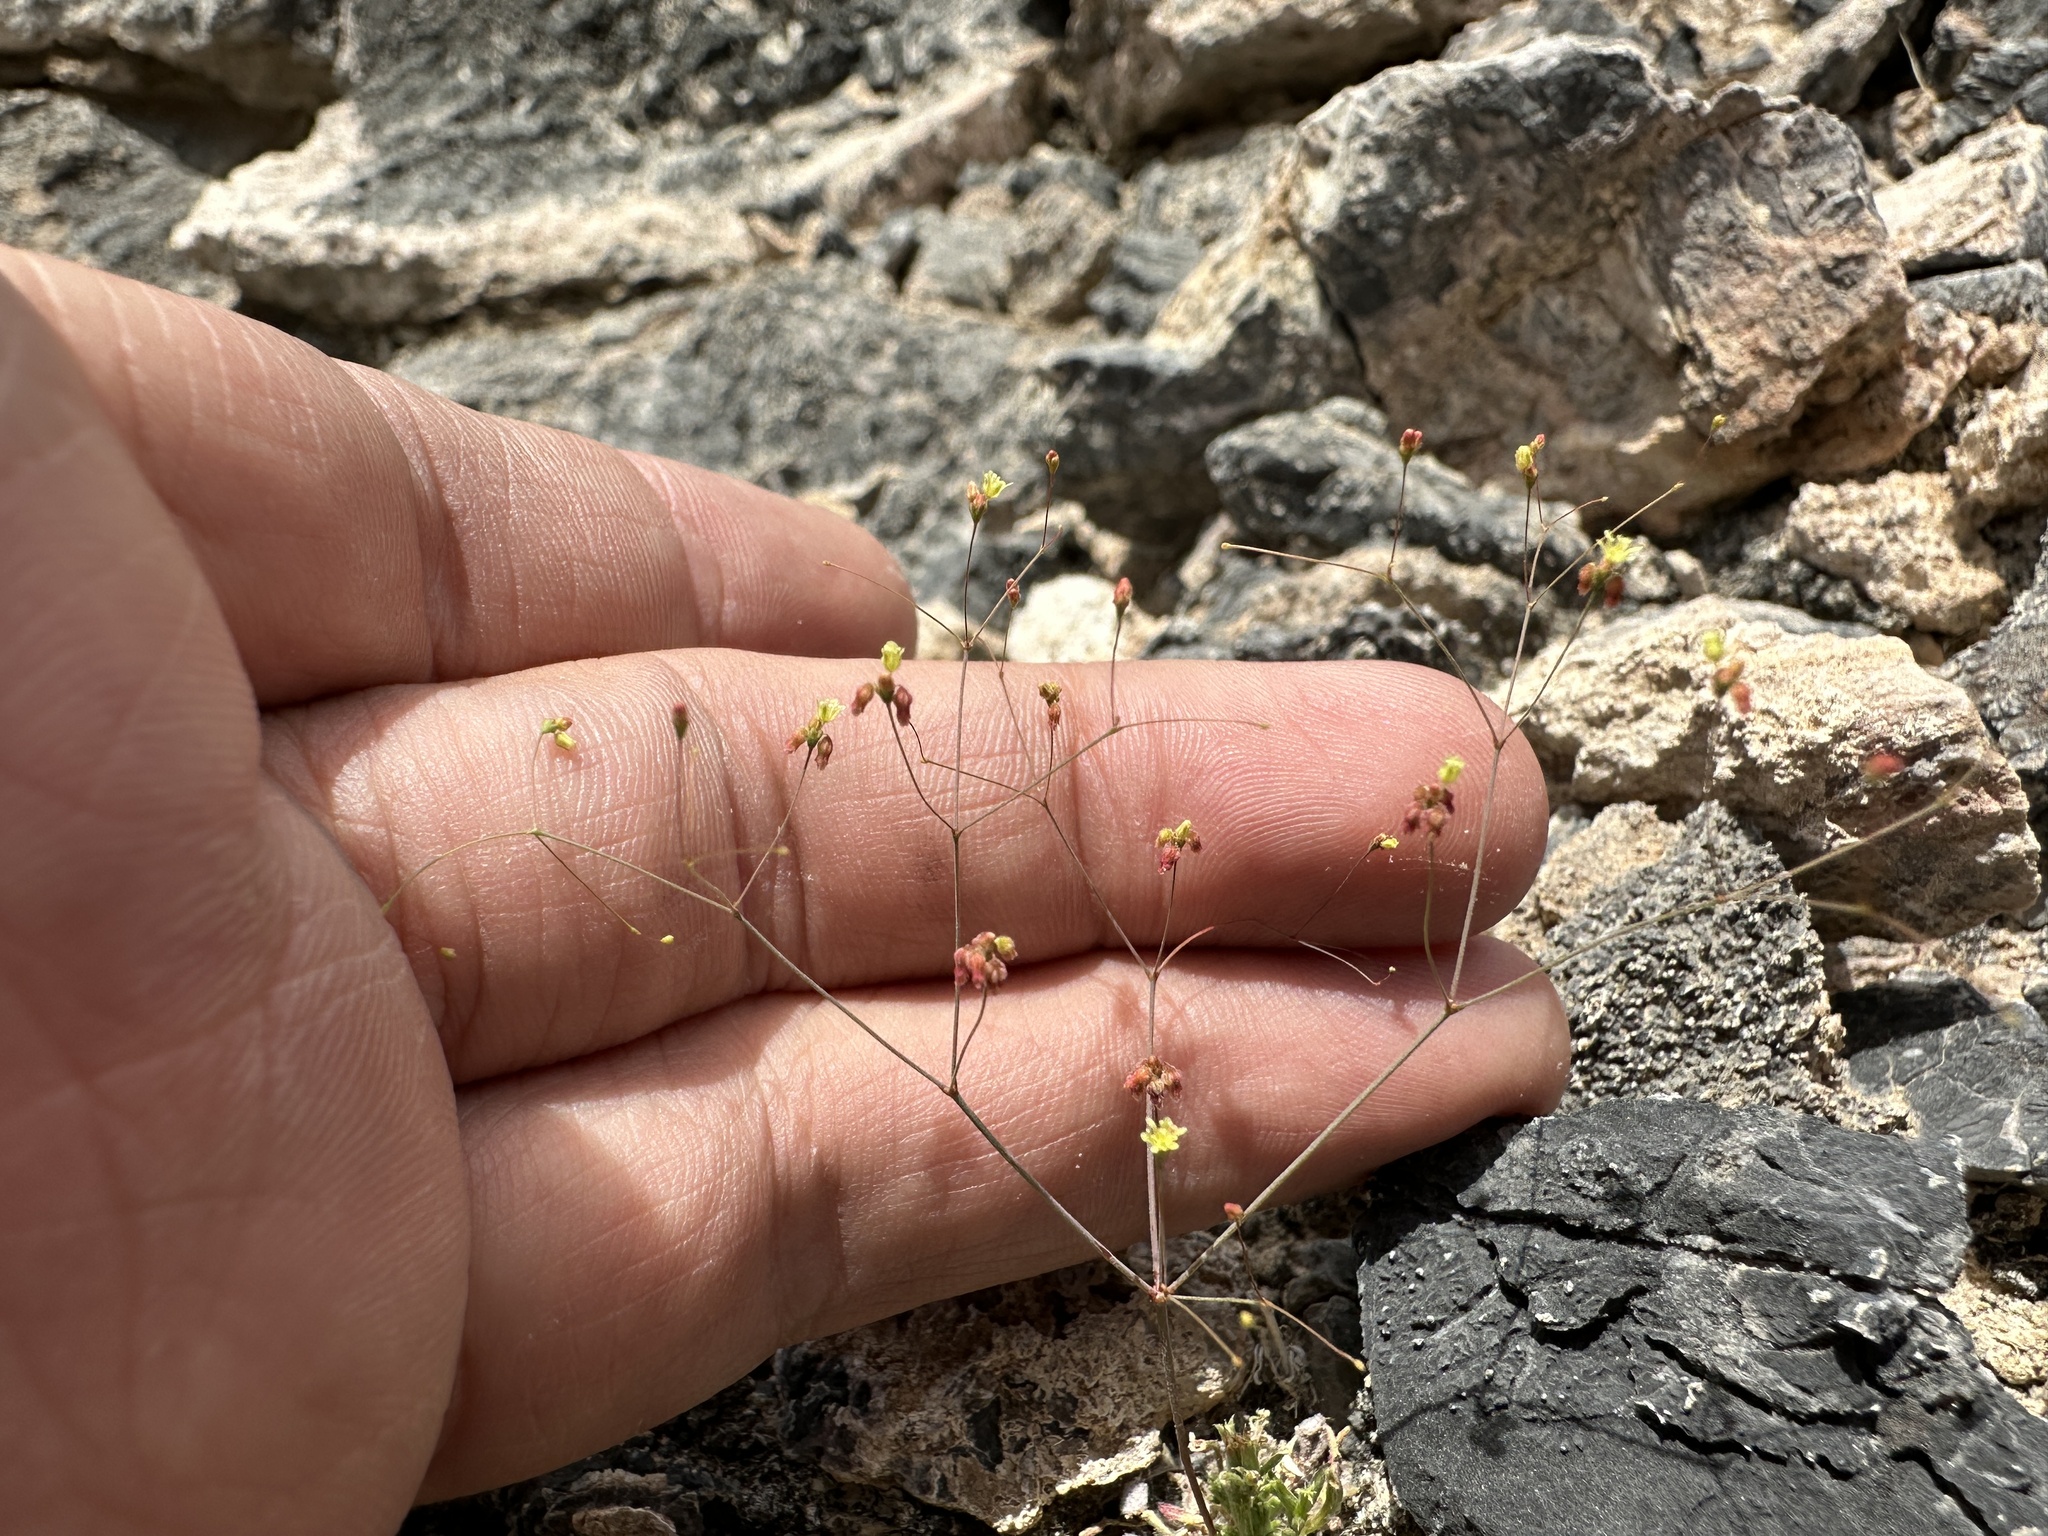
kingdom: Plantae
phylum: Tracheophyta
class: Magnoliopsida
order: Caryophyllales
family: Polygonaceae
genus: Eriogonum
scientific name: Eriogonum thomasii
